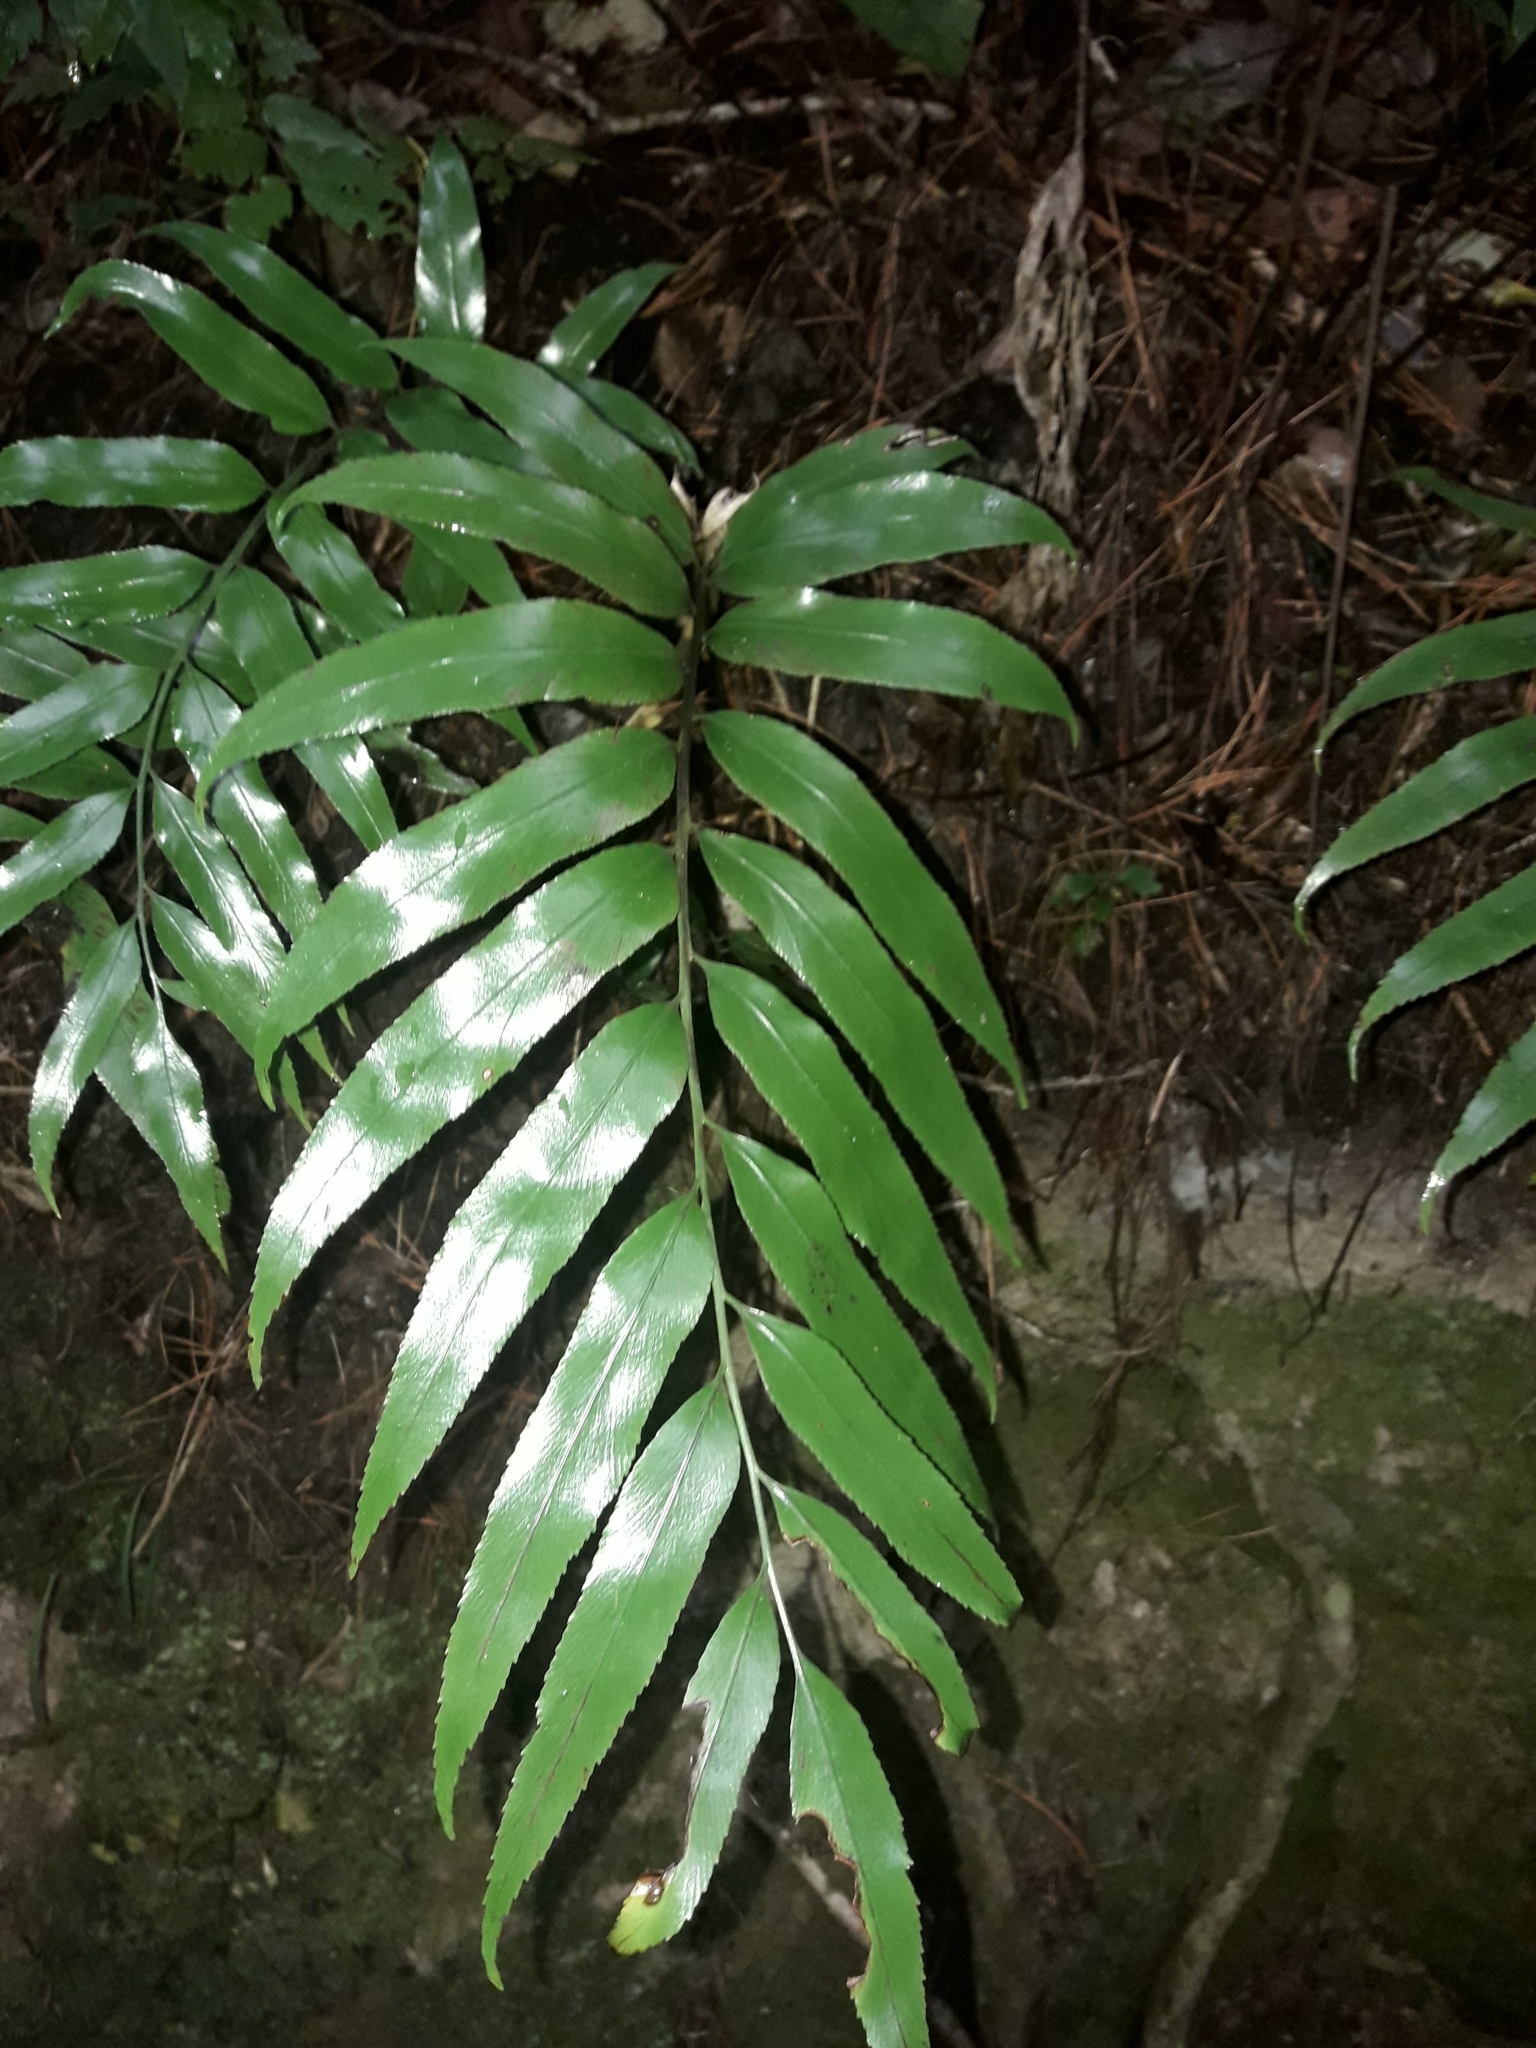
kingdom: Plantae
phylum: Tracheophyta
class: Polypodiopsida
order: Polypodiales
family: Aspleniaceae
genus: Asplenium
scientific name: Asplenium oblongifolium
